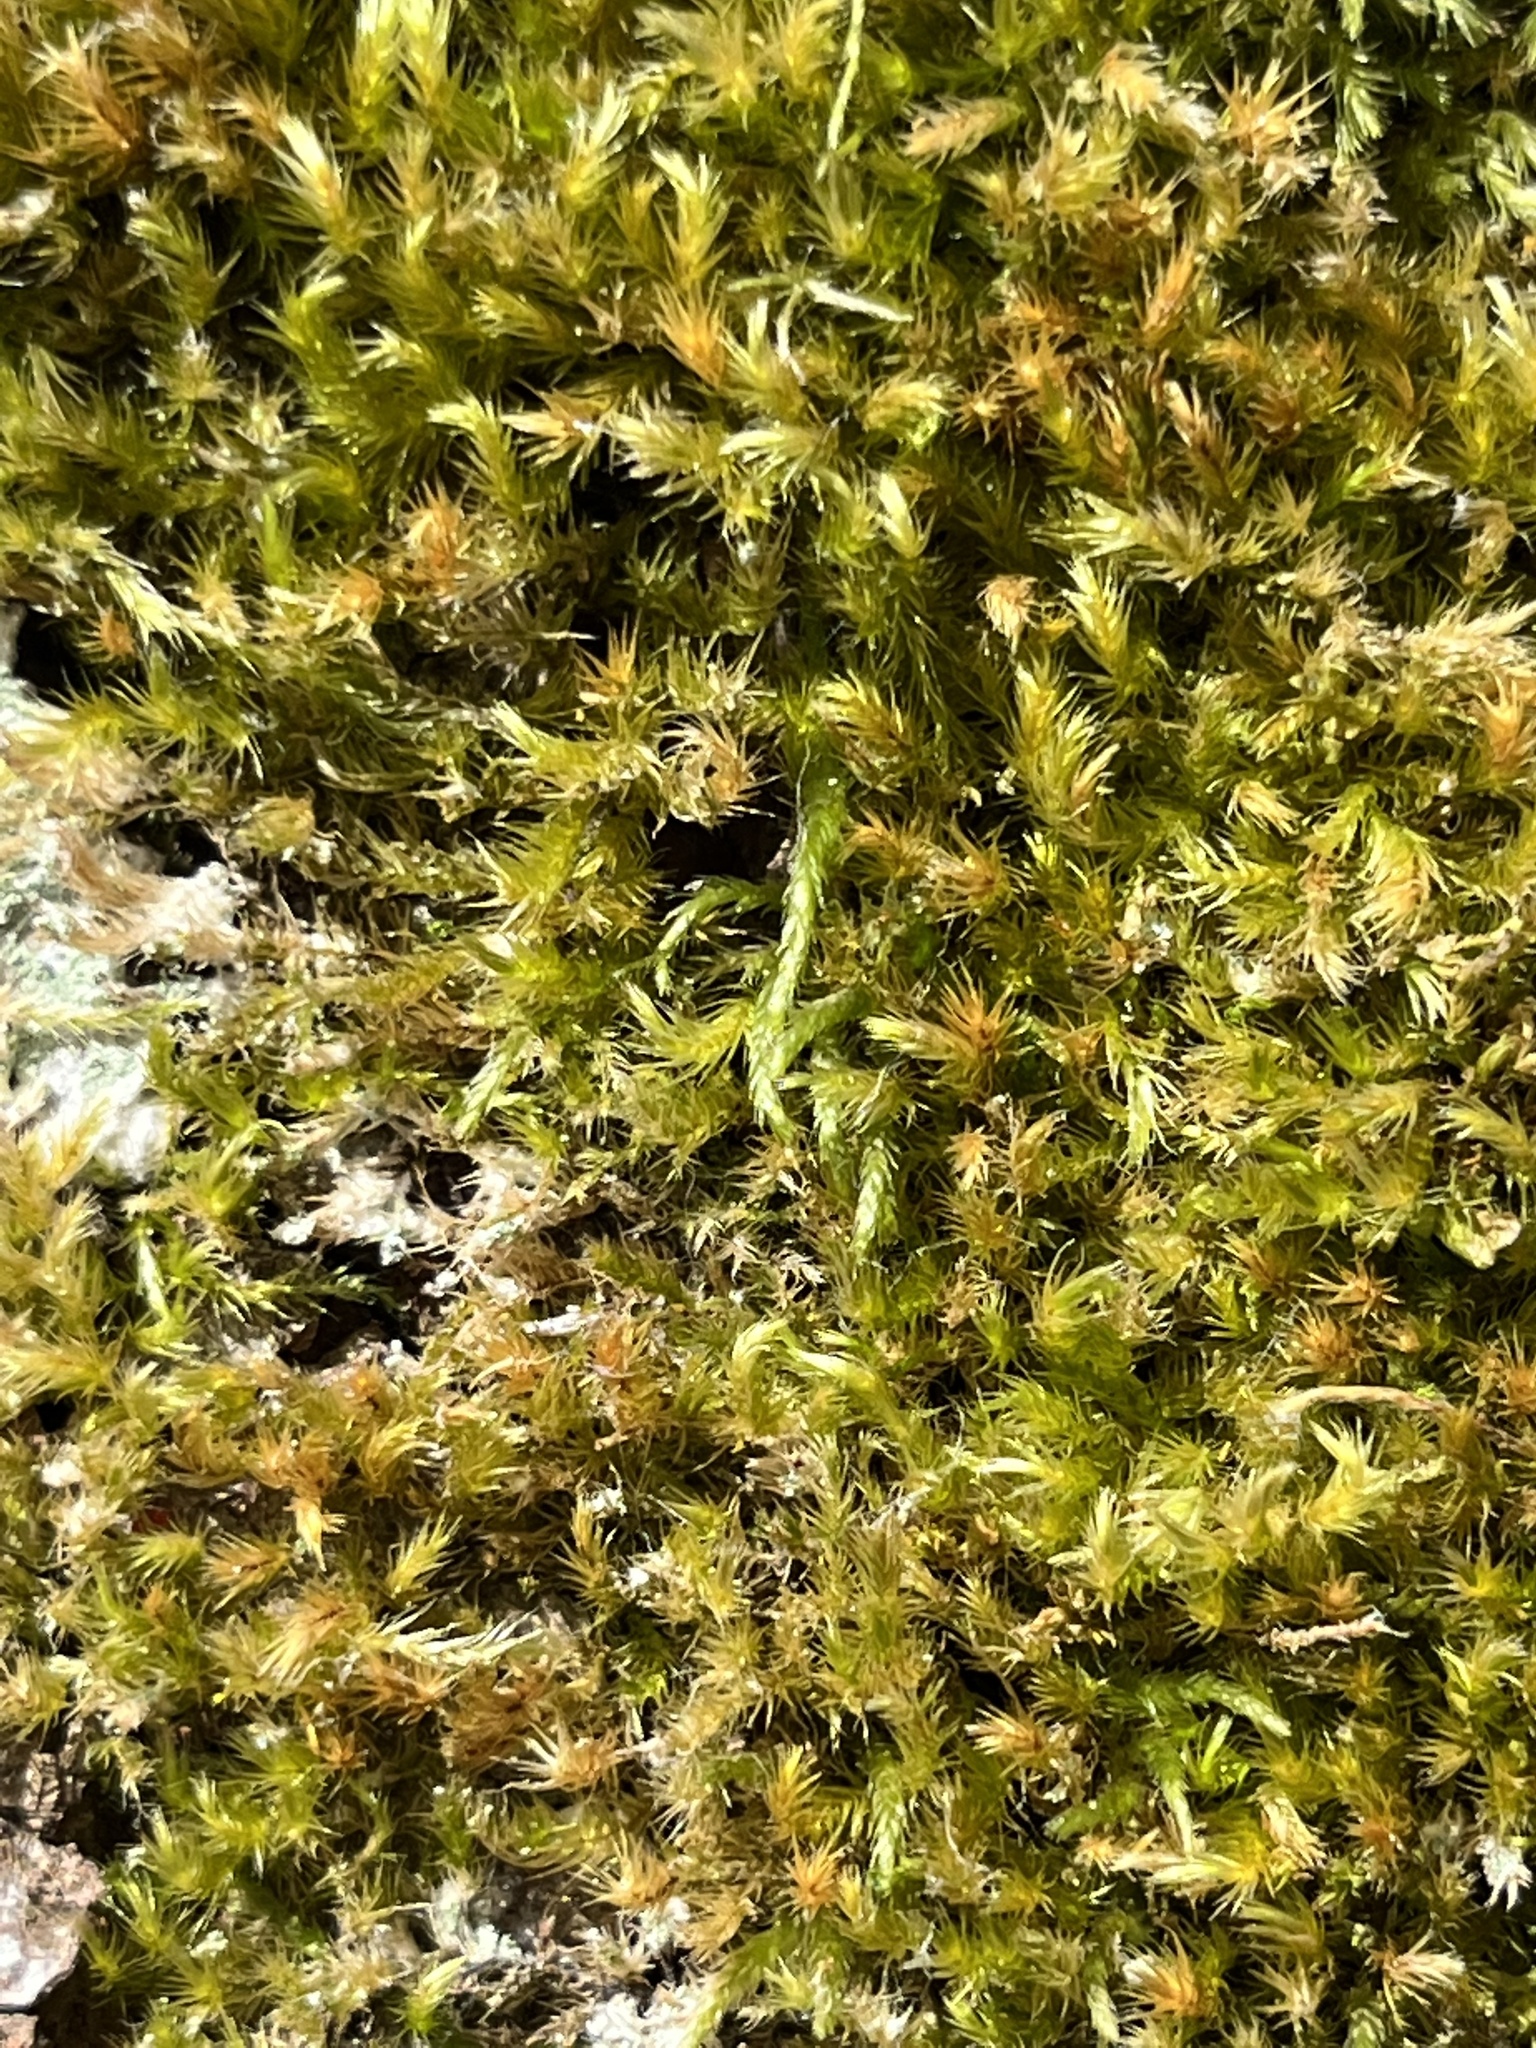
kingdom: Plantae
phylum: Bryophyta
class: Bryopsida
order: Hypnales
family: Brachytheciaceae
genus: Homalothecium
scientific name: Homalothecium fulgescens
